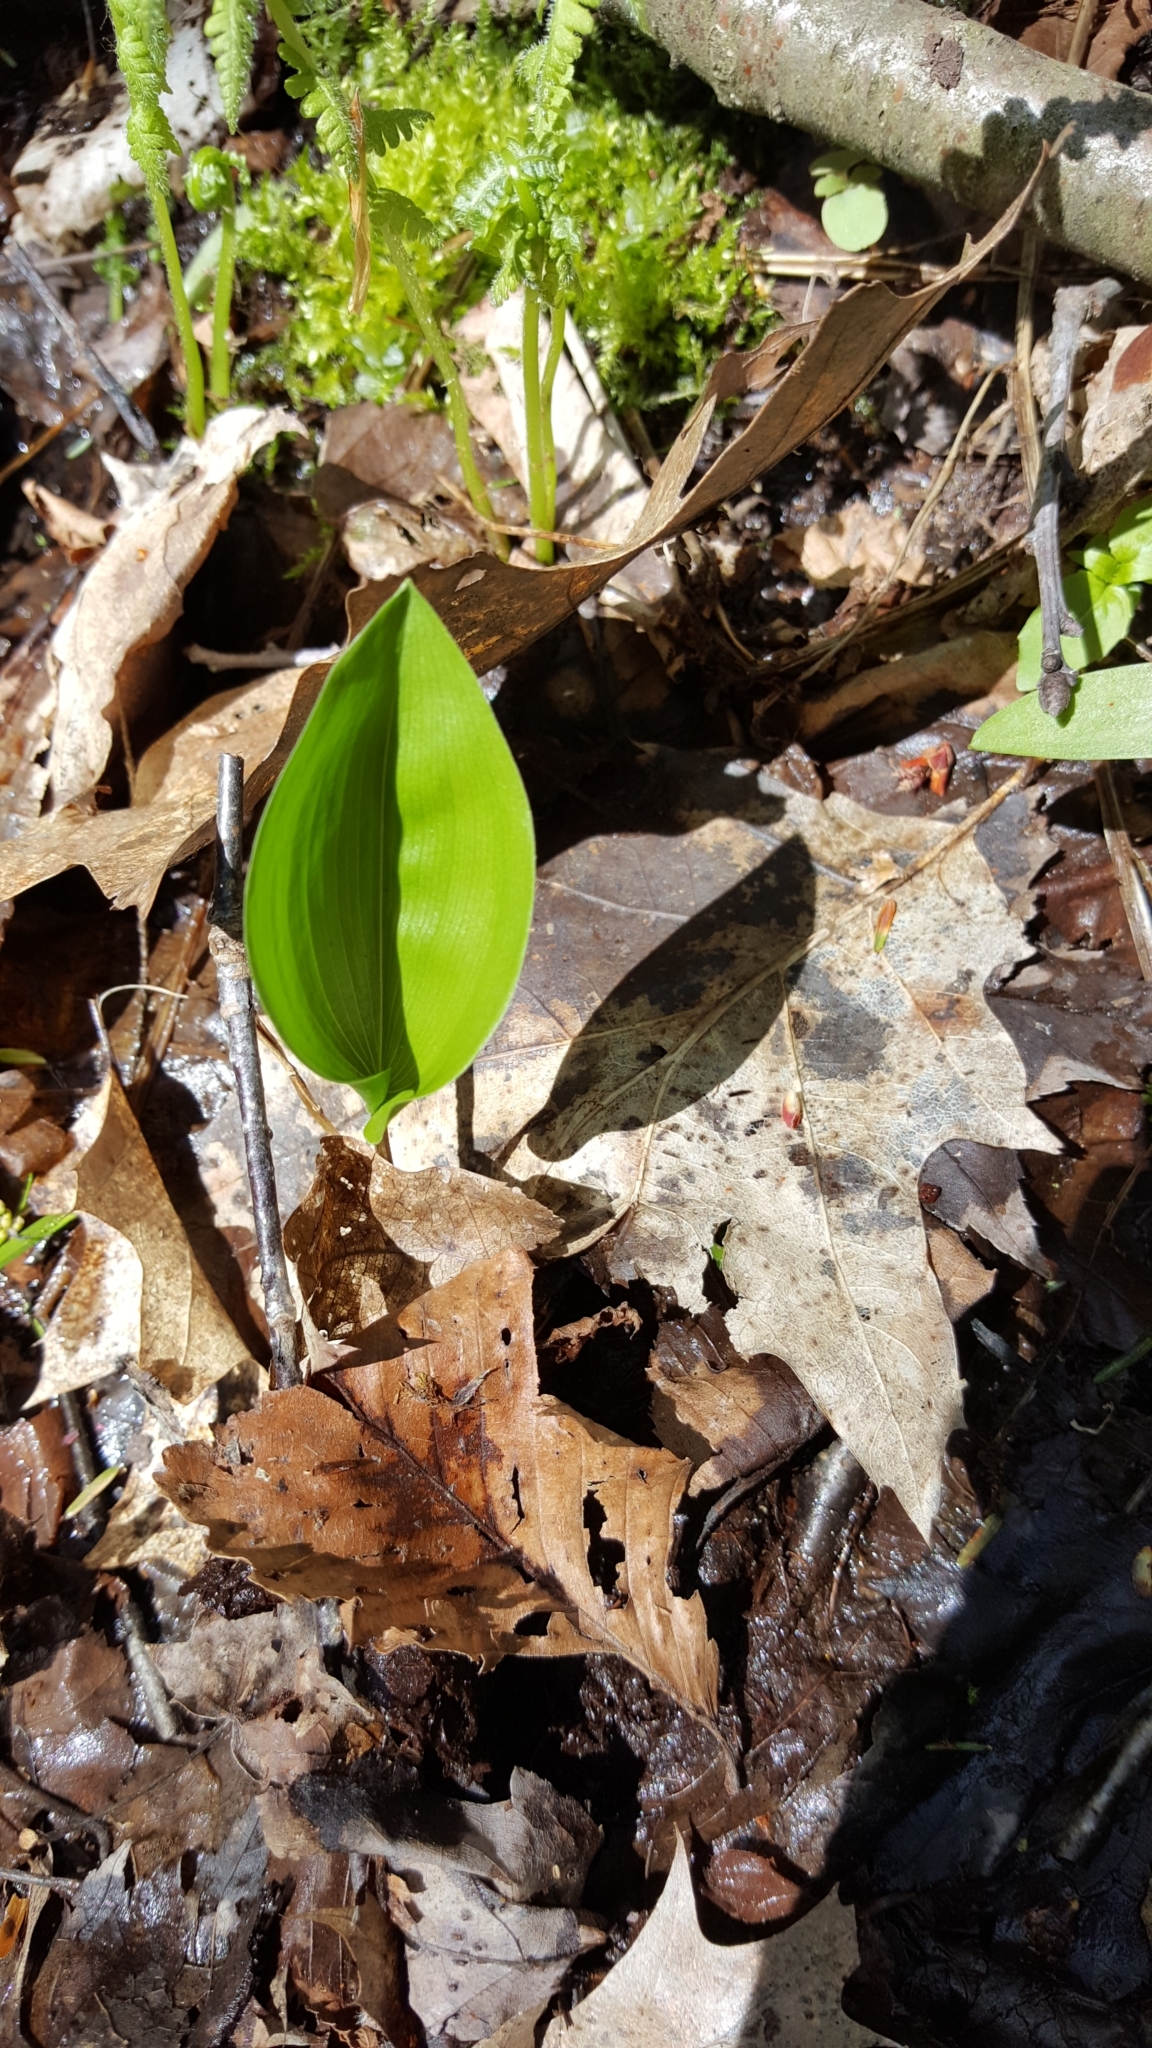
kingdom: Plantae
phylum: Tracheophyta
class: Liliopsida
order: Asparagales
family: Asparagaceae
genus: Maianthemum
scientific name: Maianthemum canadense
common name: False lily-of-the-valley
